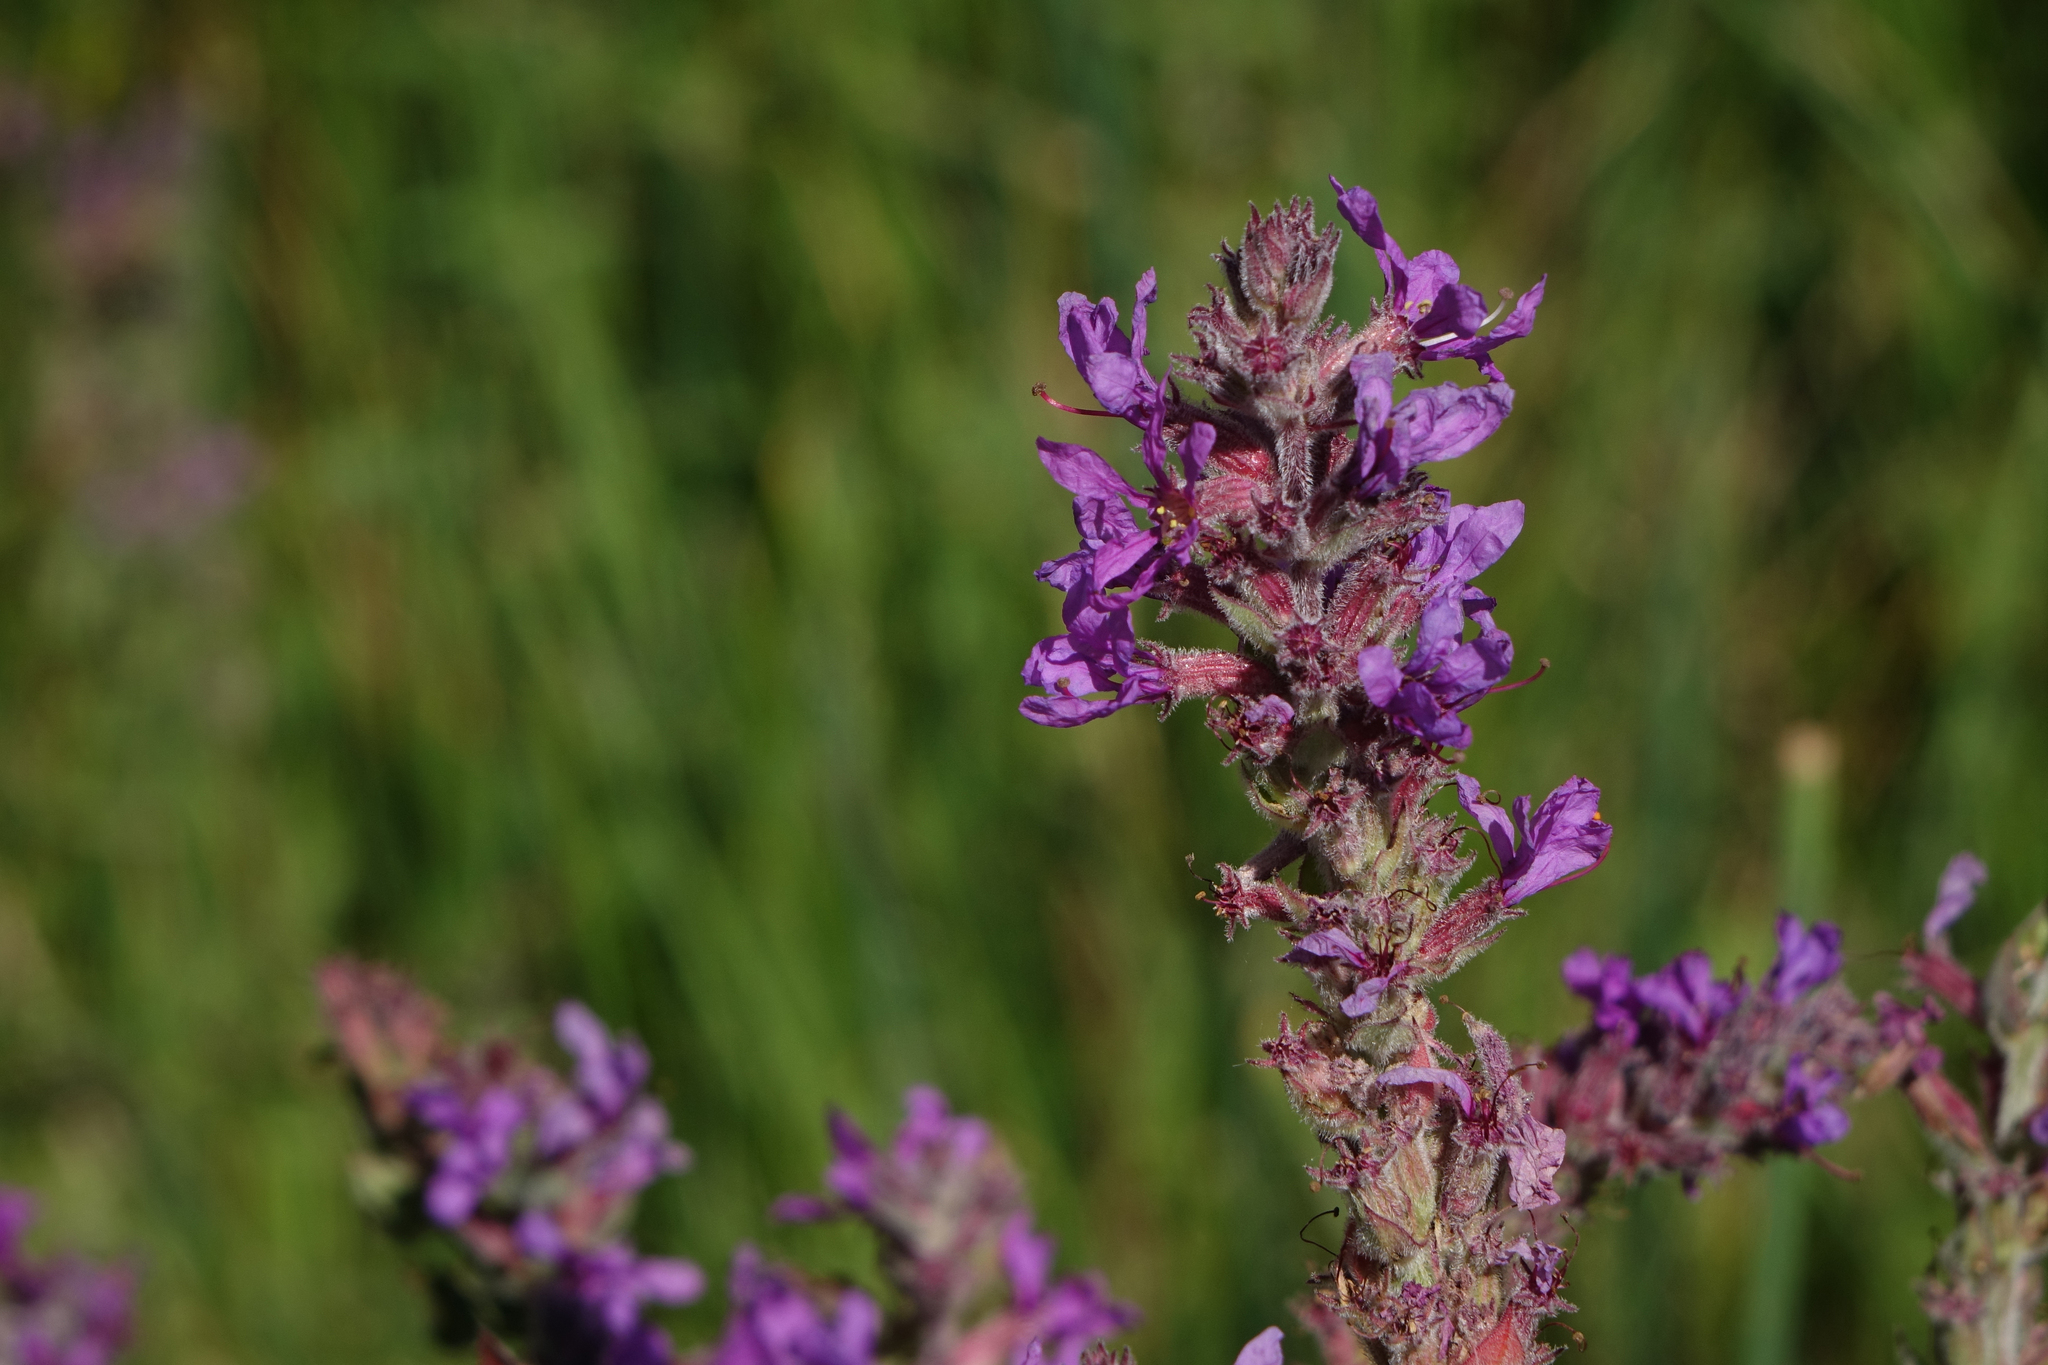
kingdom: Plantae
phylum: Tracheophyta
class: Magnoliopsida
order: Myrtales
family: Lythraceae
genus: Lythrum
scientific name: Lythrum salicaria
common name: Purple loosestrife
